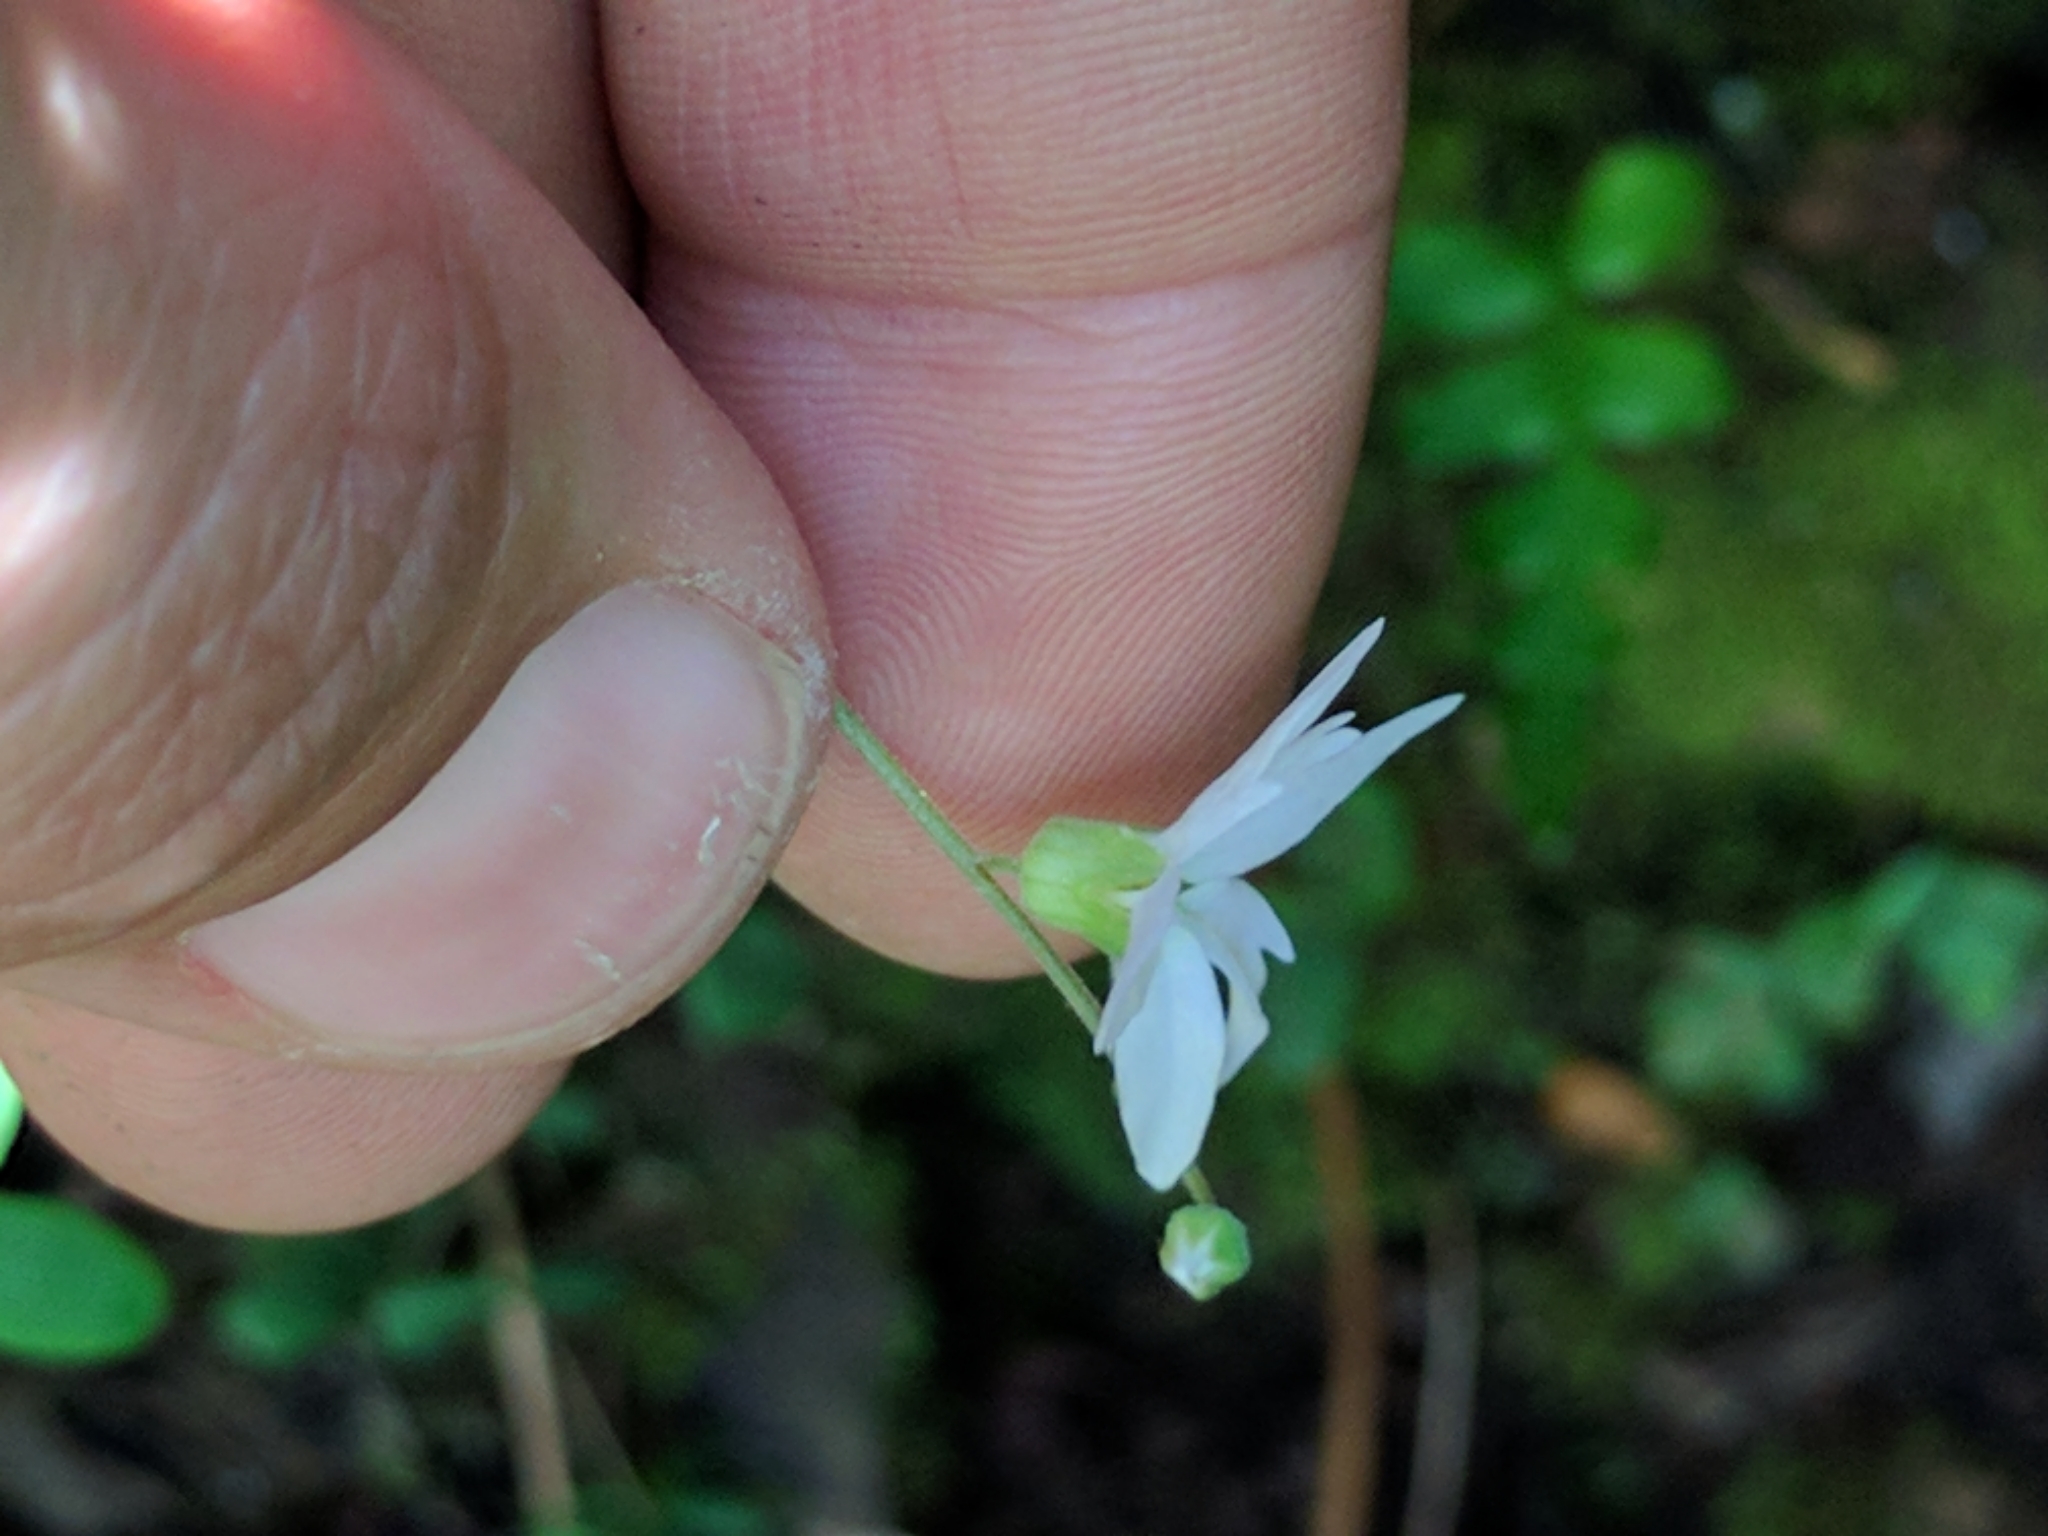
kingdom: Plantae
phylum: Tracheophyta
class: Magnoliopsida
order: Saxifragales
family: Saxifragaceae
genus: Lithophragma
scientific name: Lithophragma heterophyllum
